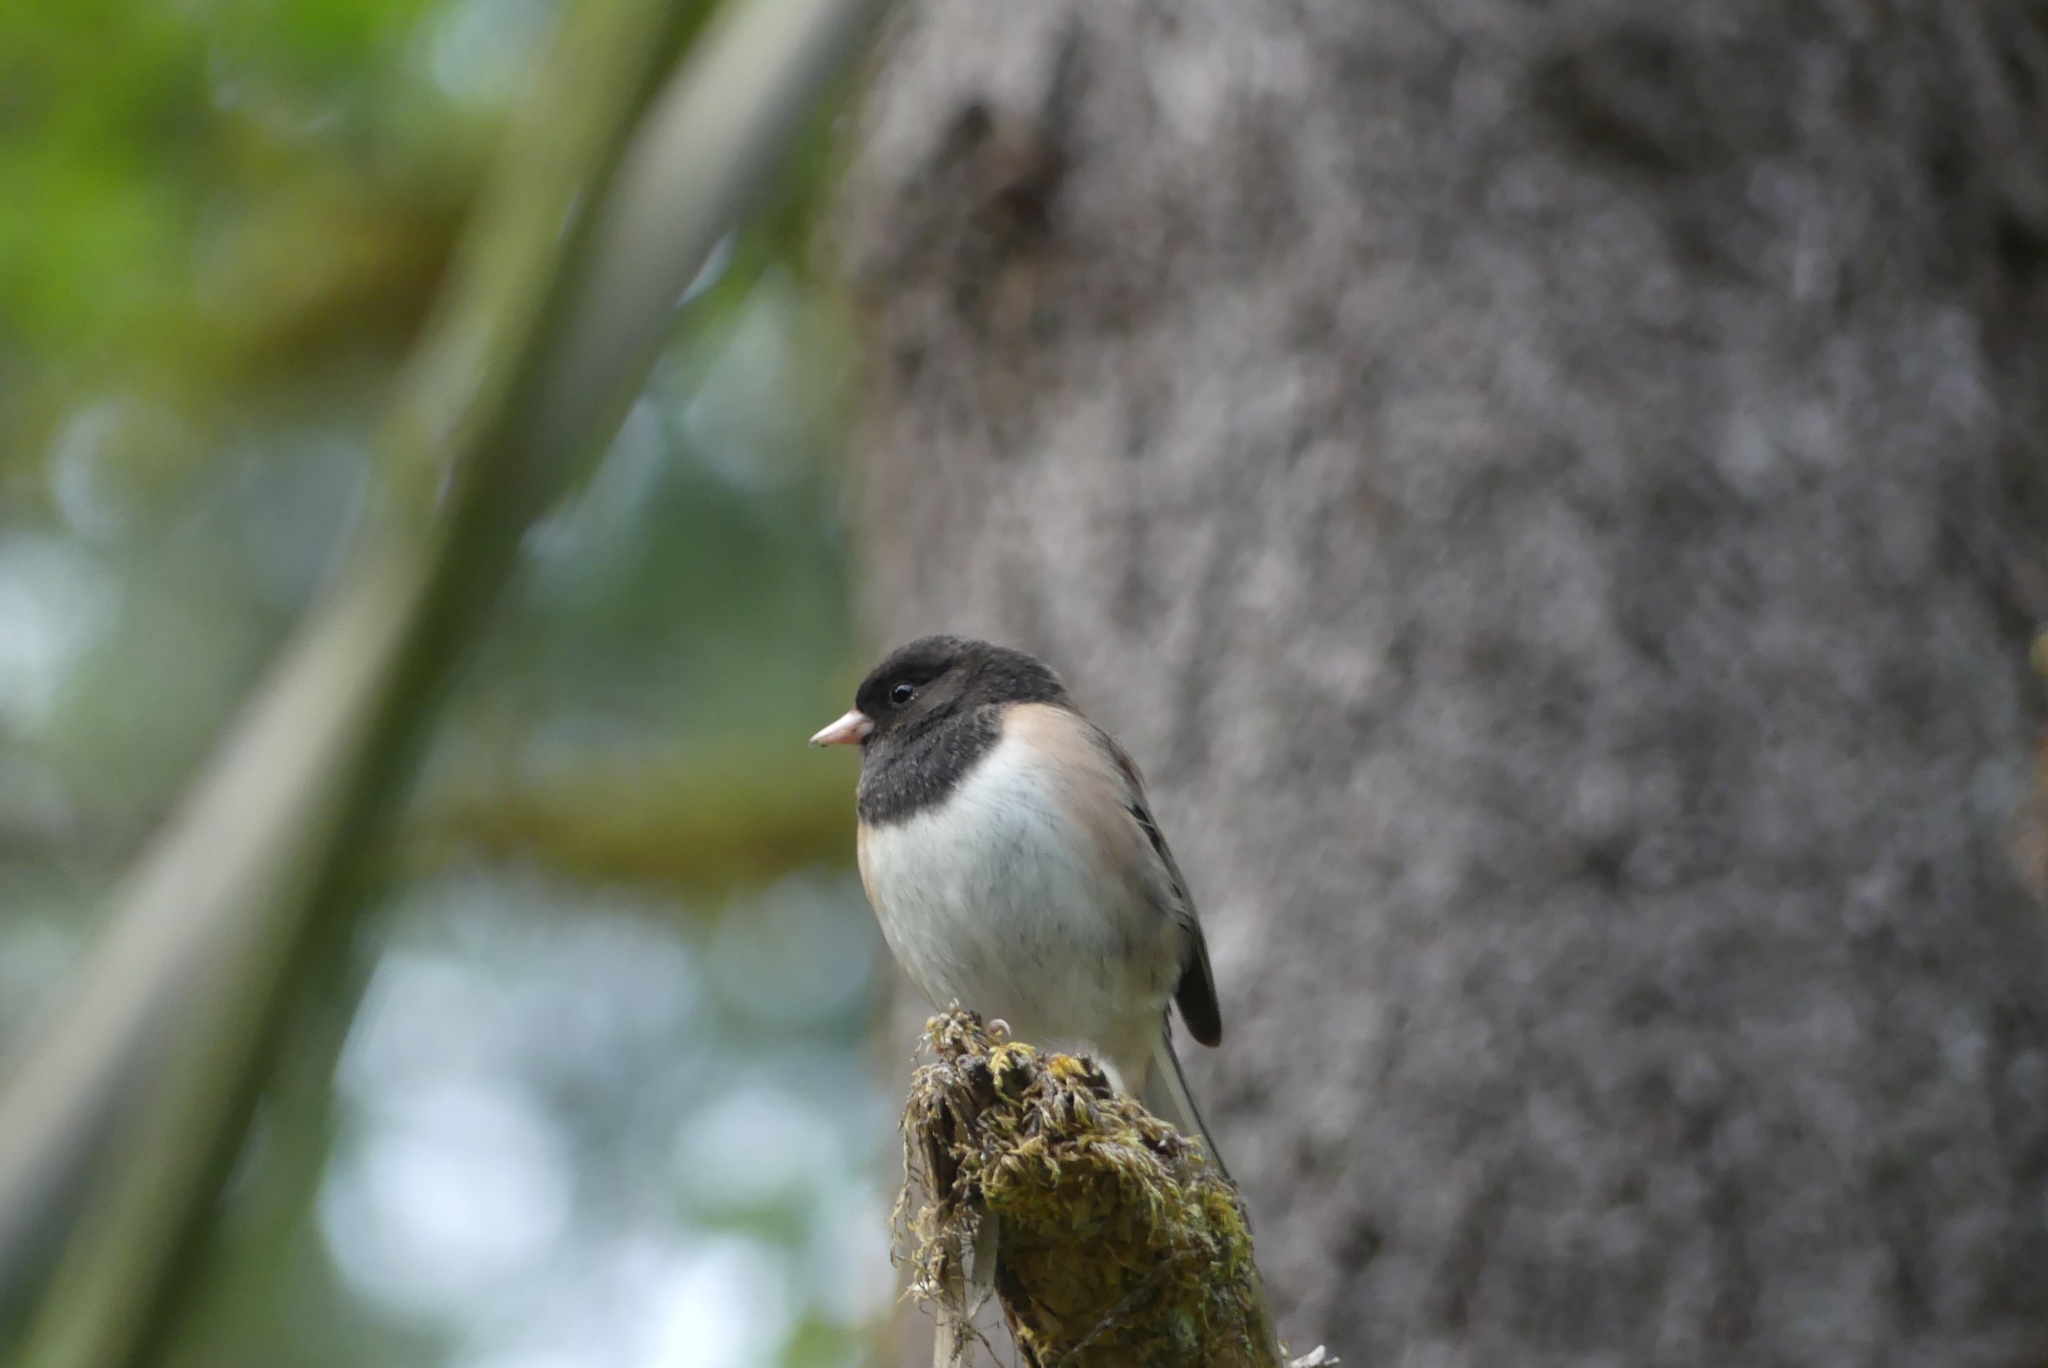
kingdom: Animalia
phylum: Chordata
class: Aves
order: Passeriformes
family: Passerellidae
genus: Junco
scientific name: Junco hyemalis
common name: Dark-eyed junco
